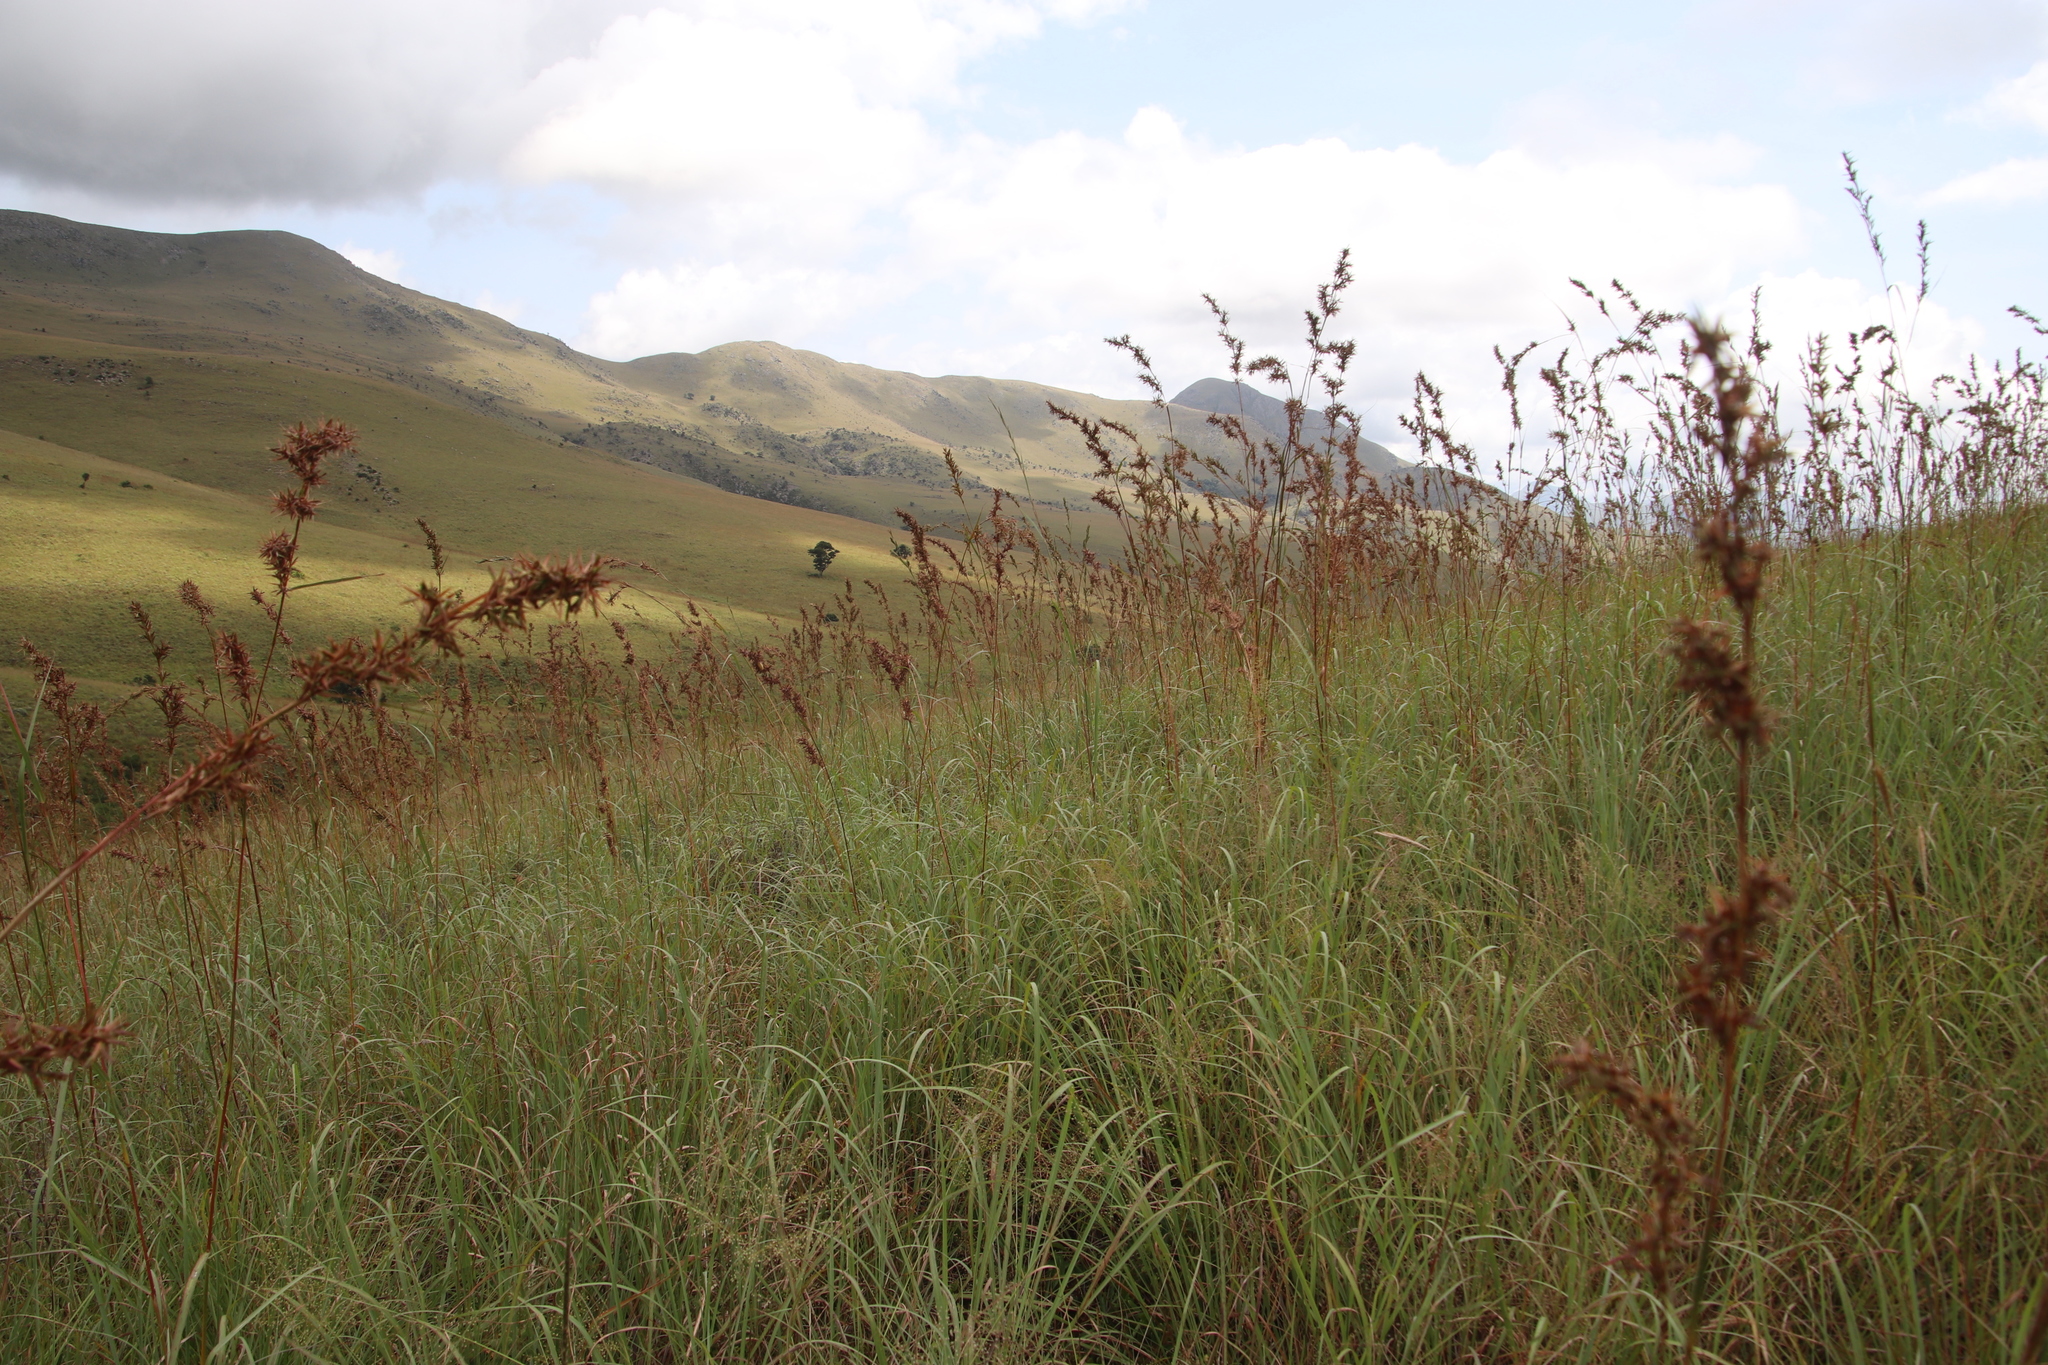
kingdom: Plantae
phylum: Tracheophyta
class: Liliopsida
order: Poales
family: Poaceae
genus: Cymbopogon
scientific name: Cymbopogon nardus
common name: Giant turpentine grass
